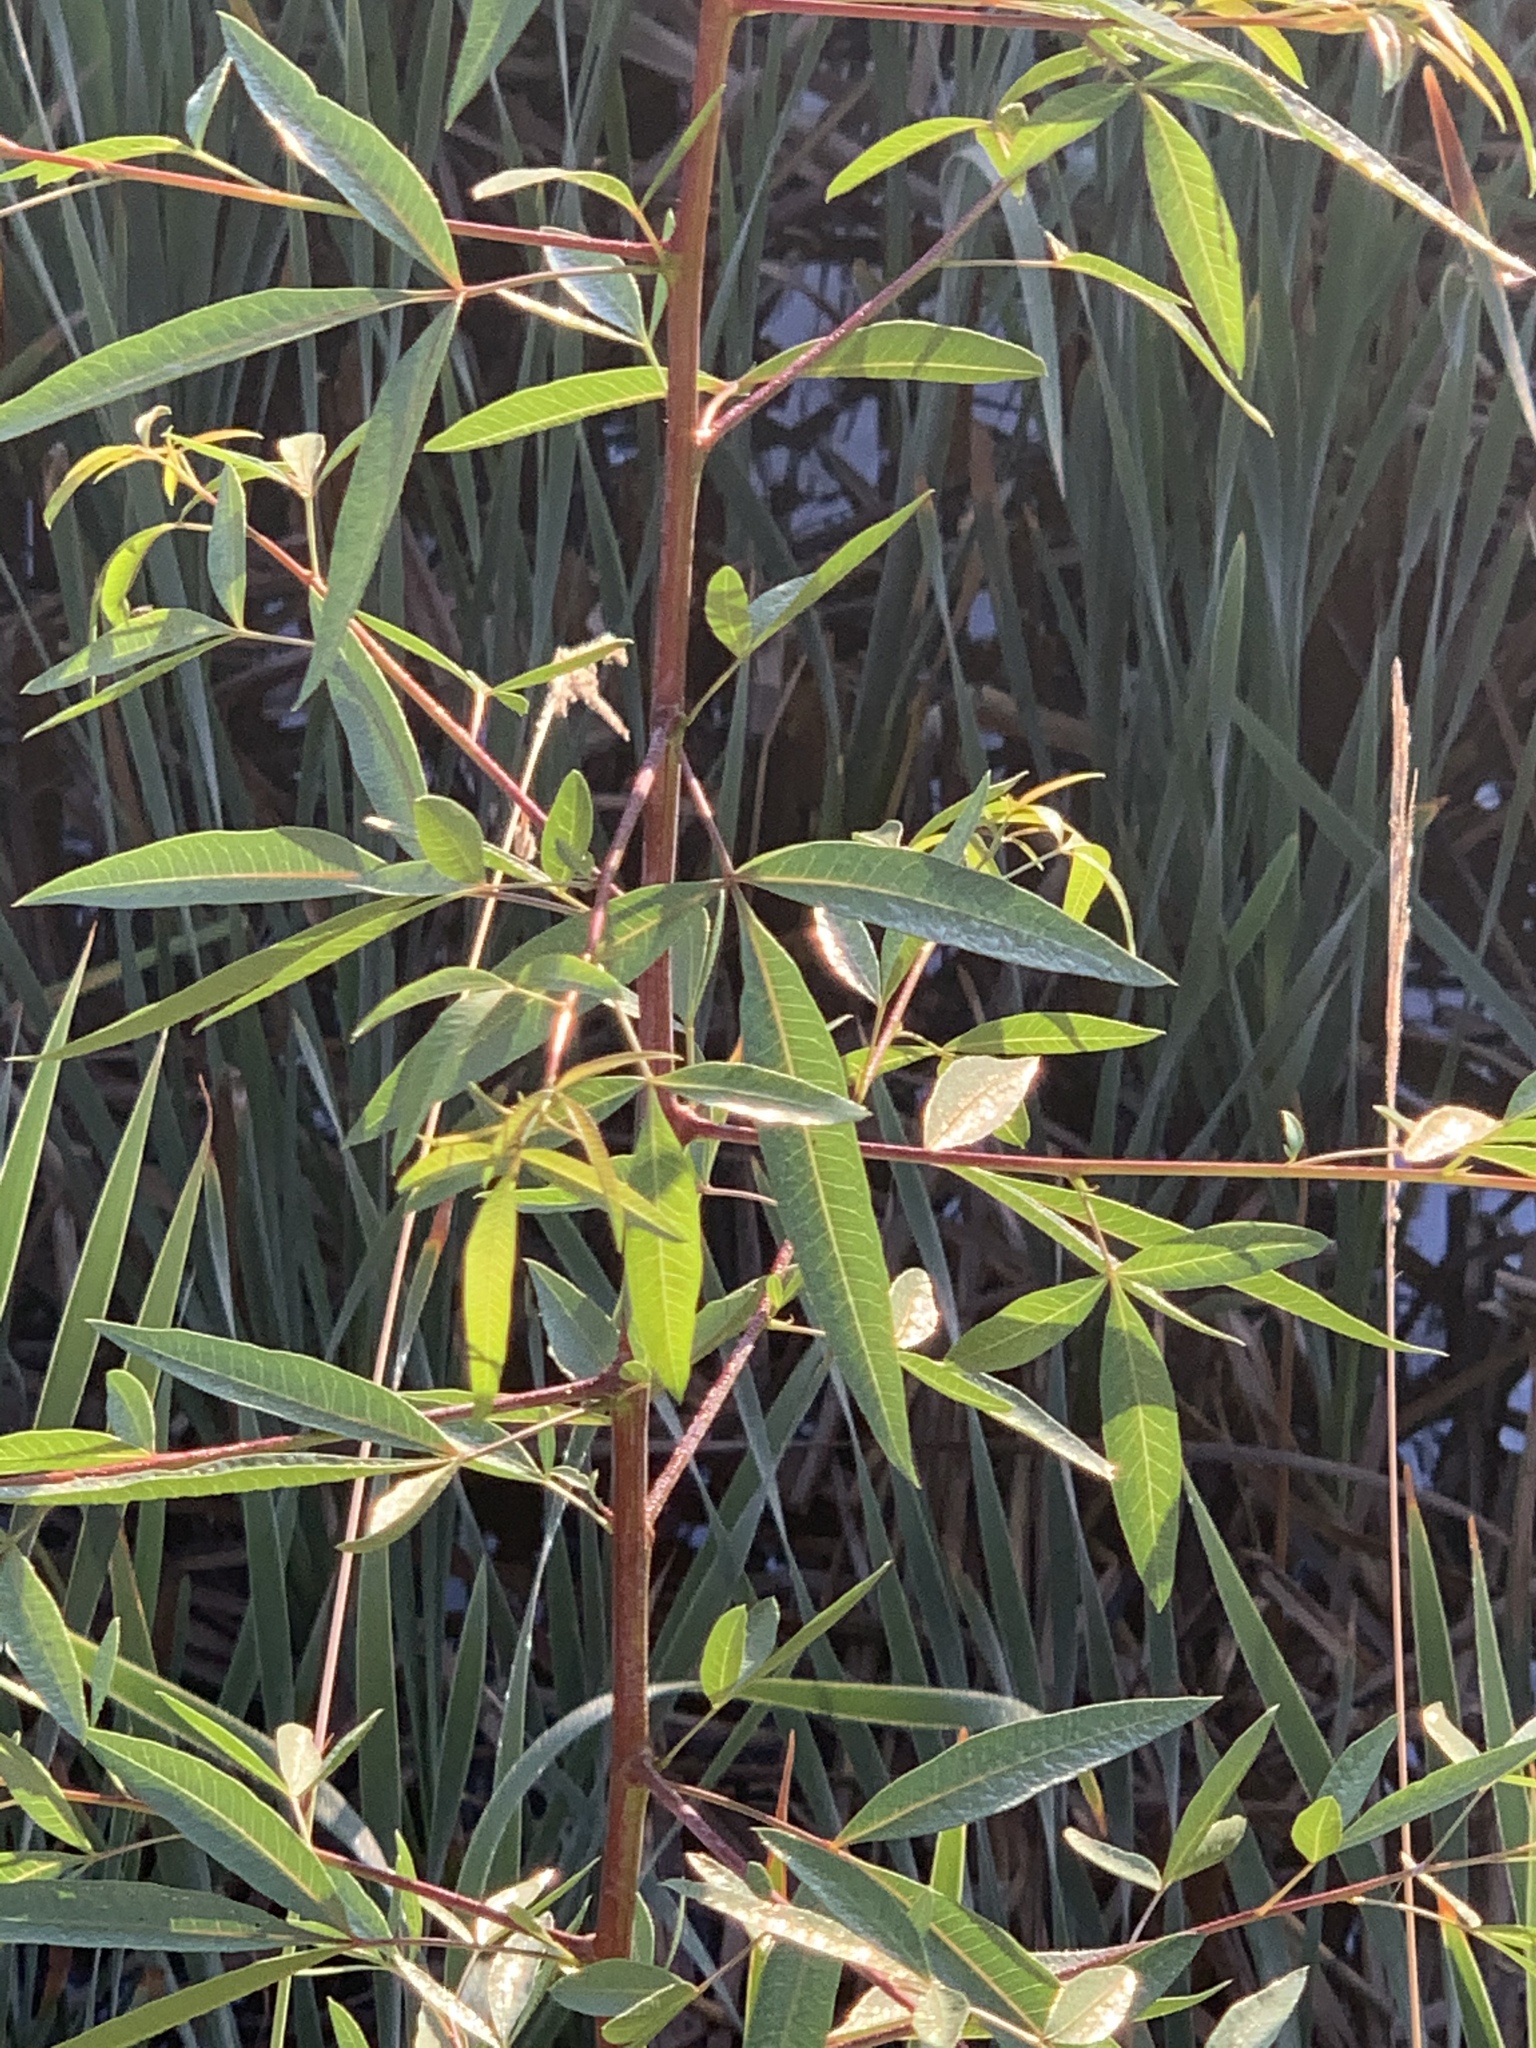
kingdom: Plantae
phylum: Tracheophyta
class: Magnoliopsida
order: Sapindales
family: Anacardiaceae
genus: Searsia
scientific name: Searsia pendulina
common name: White karee
